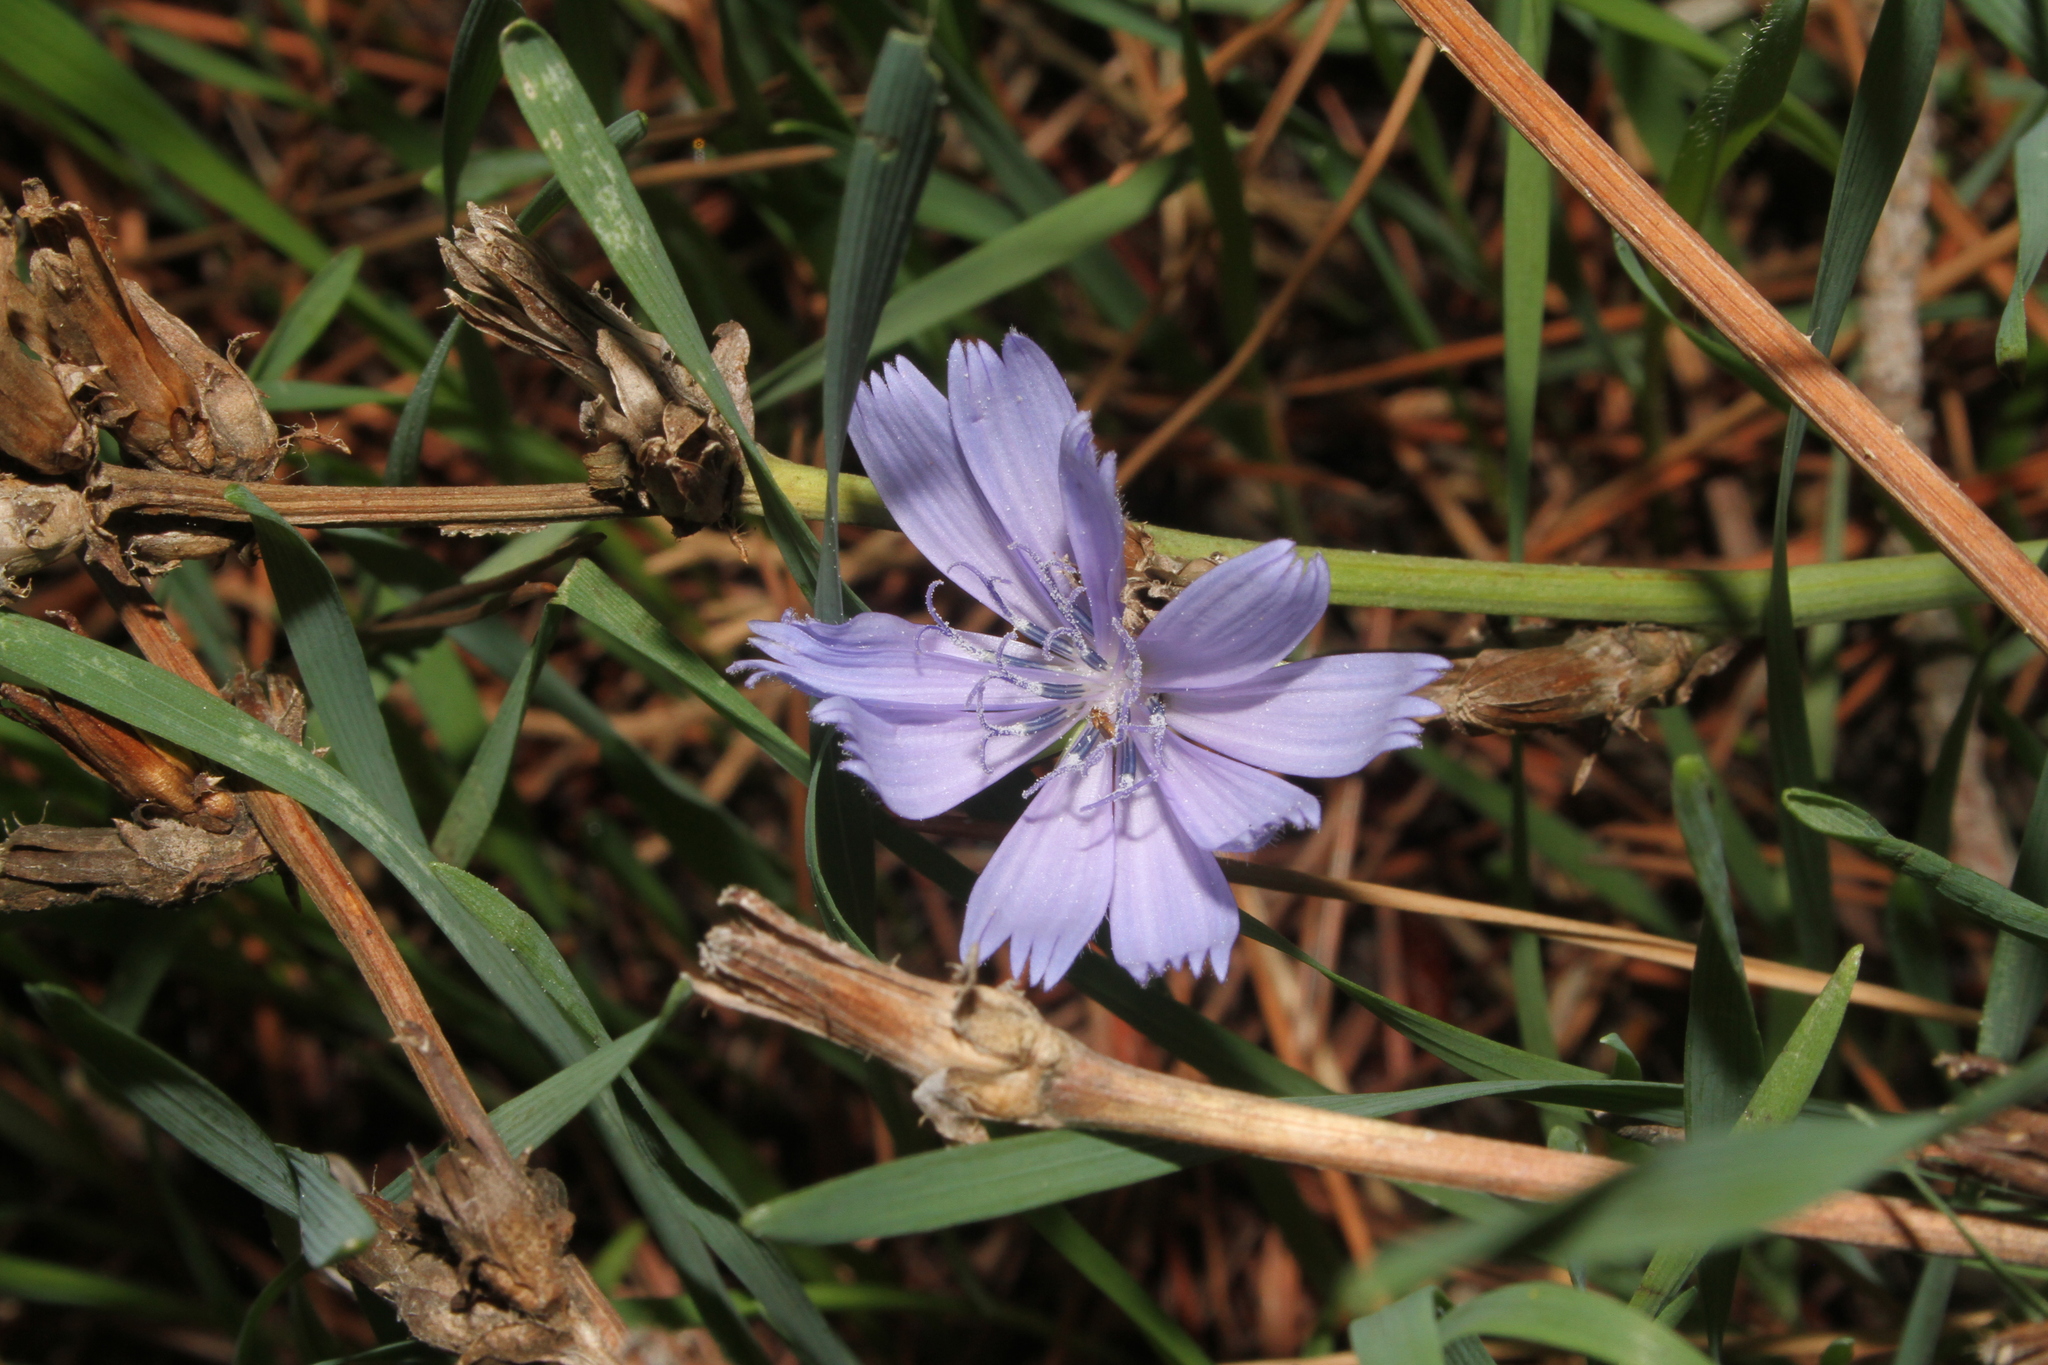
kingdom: Plantae
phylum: Tracheophyta
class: Magnoliopsida
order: Asterales
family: Asteraceae
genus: Cichorium
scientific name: Cichorium intybus
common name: Chicory
